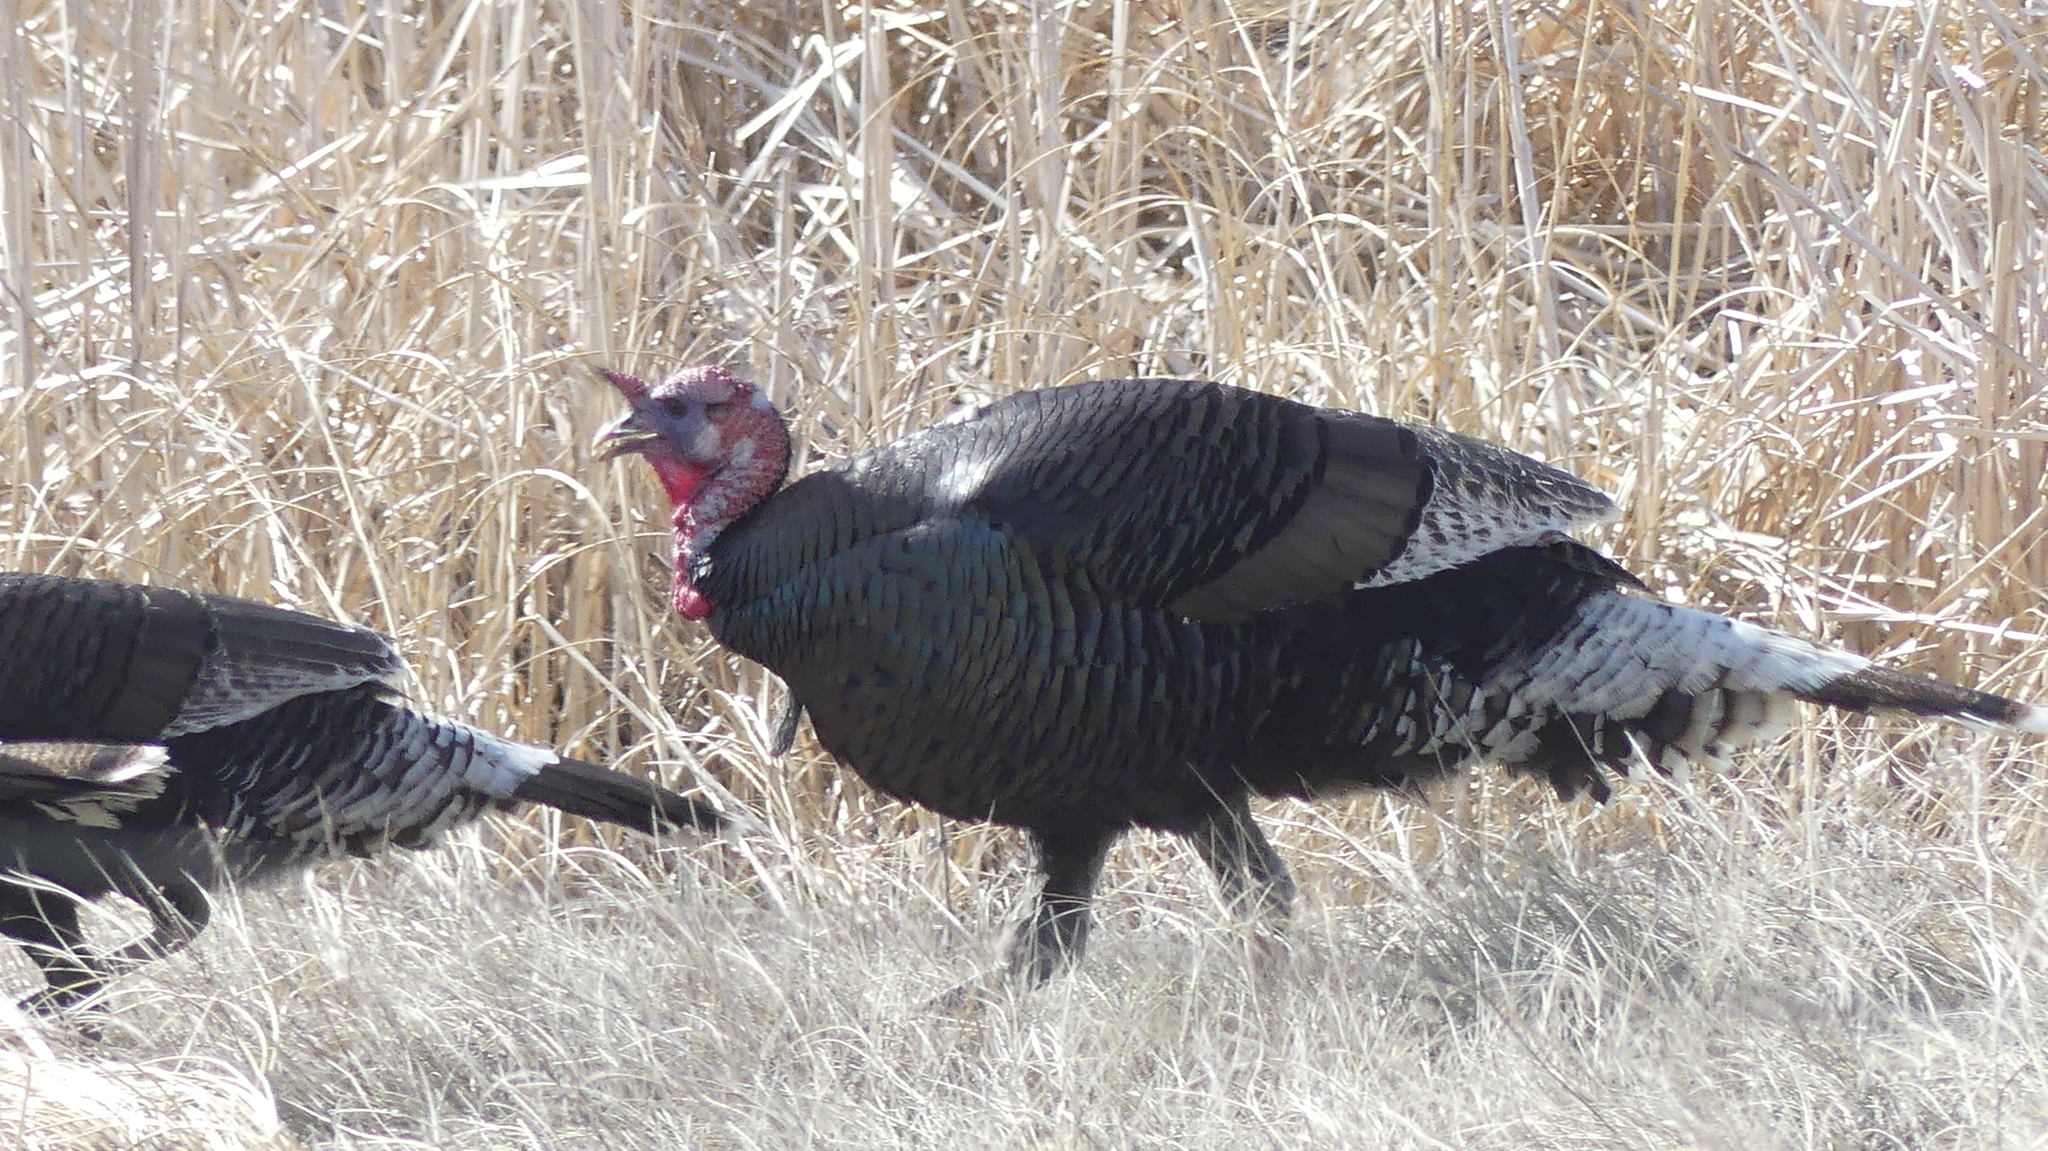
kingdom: Animalia
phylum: Chordata
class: Aves
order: Galliformes
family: Phasianidae
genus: Meleagris
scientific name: Meleagris gallopavo
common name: Wild turkey
